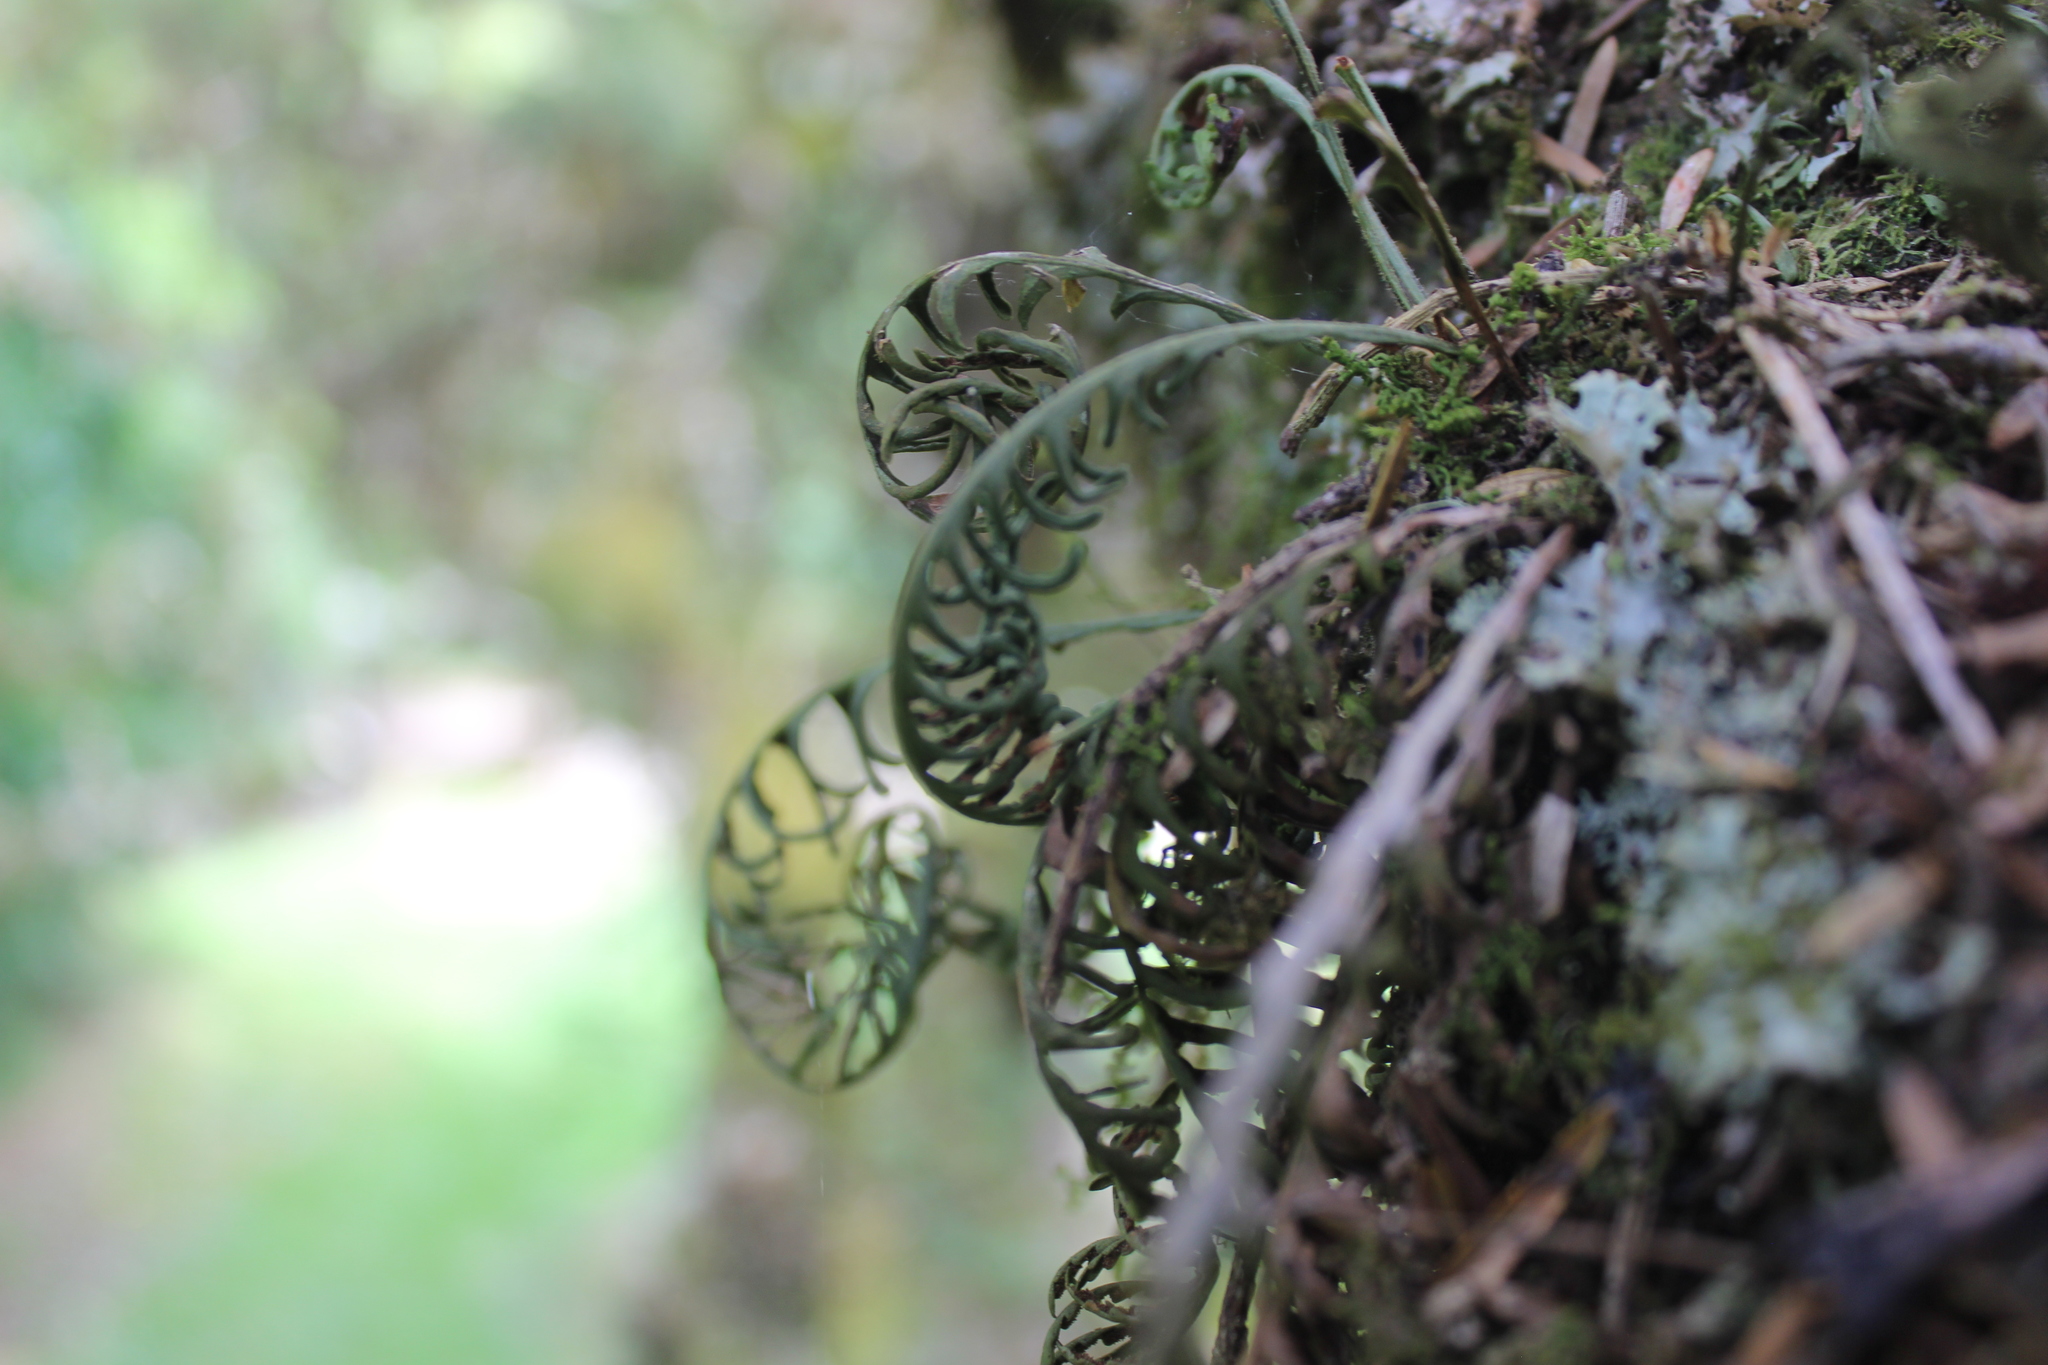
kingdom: Plantae
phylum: Tracheophyta
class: Polypodiopsida
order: Polypodiales
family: Polypodiaceae
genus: Notogrammitis
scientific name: Notogrammitis heterophylla
